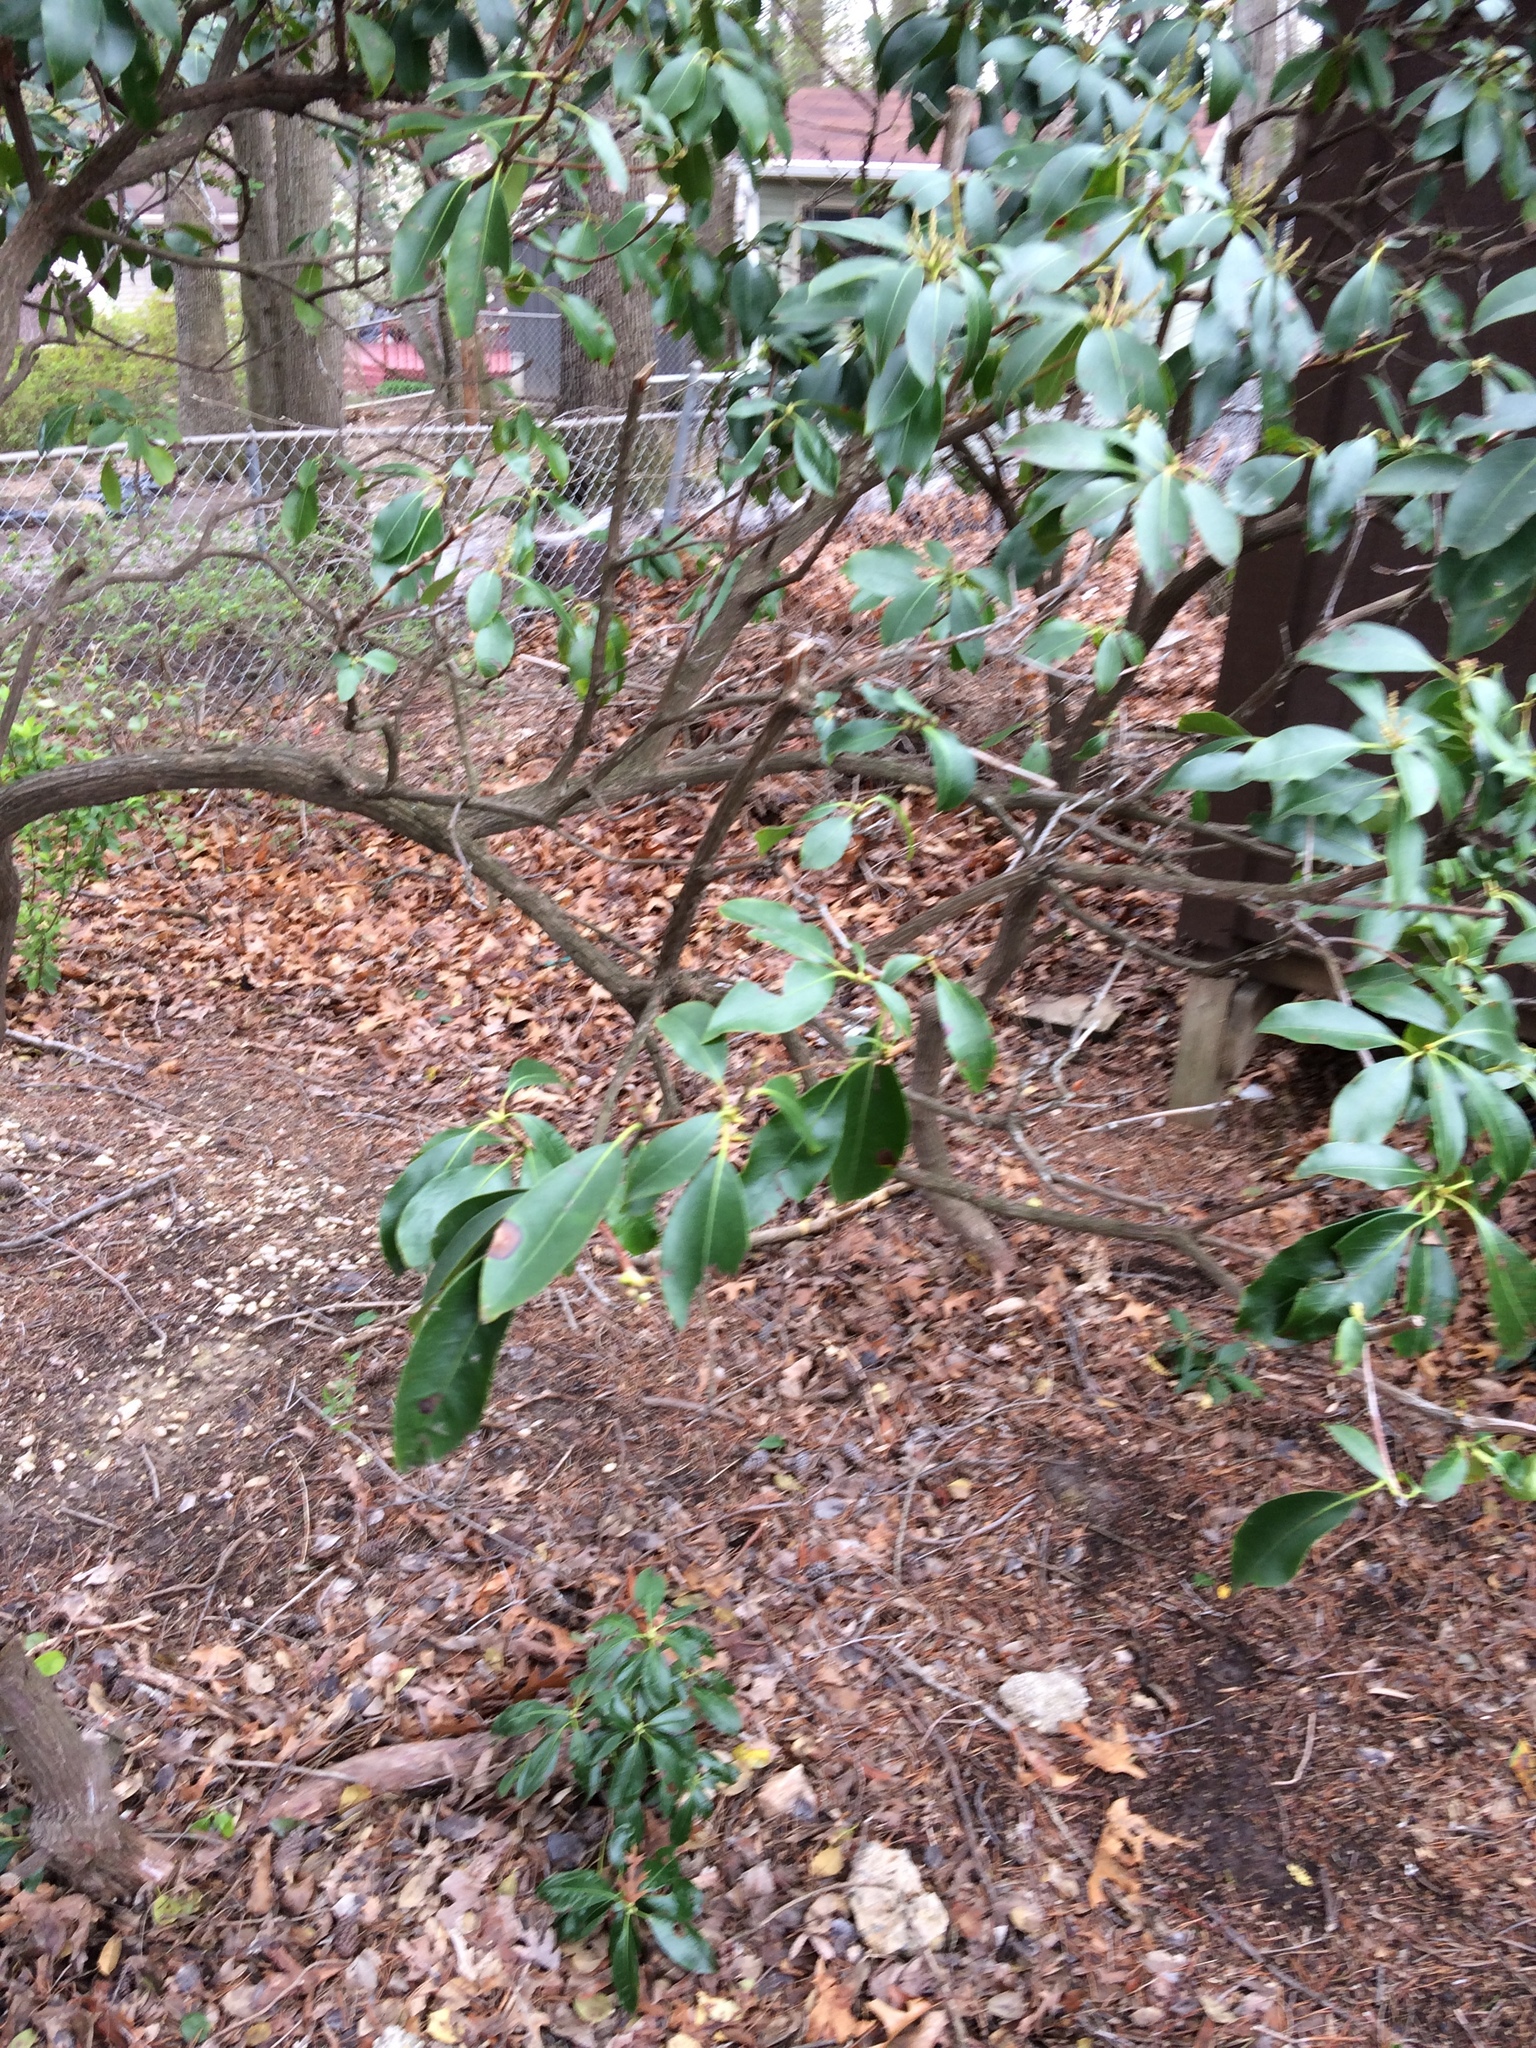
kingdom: Plantae
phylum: Tracheophyta
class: Magnoliopsida
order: Ericales
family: Ericaceae
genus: Kalmia
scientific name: Kalmia latifolia
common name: Mountain-laurel
